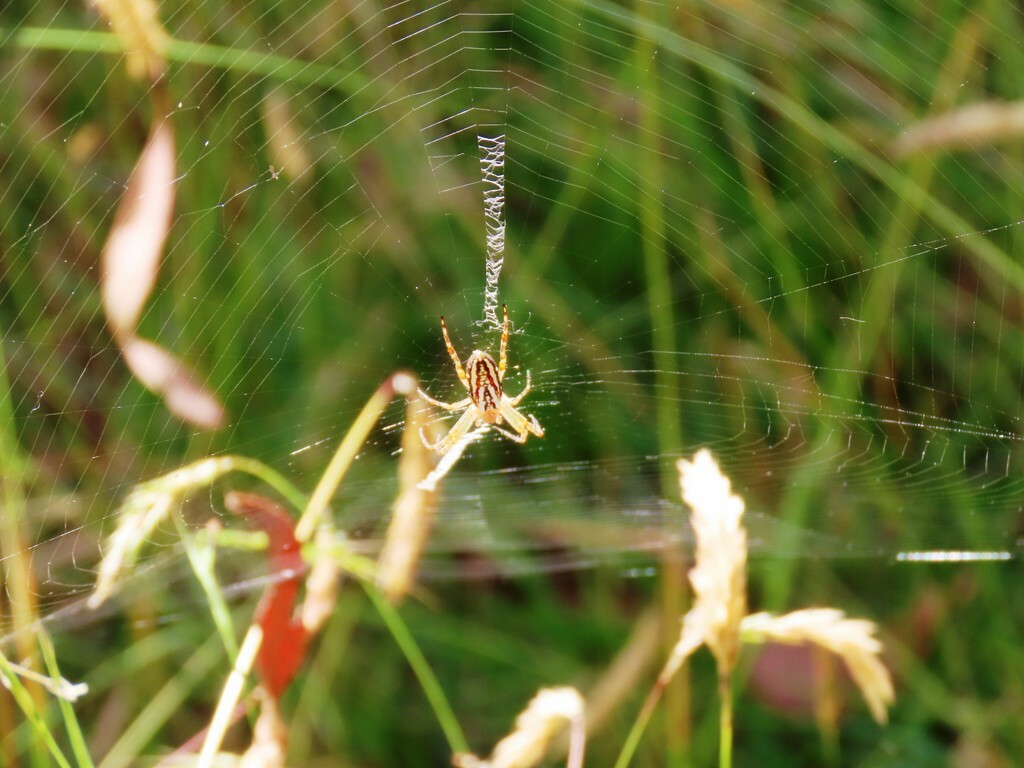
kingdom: Animalia
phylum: Arthropoda
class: Arachnida
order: Araneae
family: Araneidae
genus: Plebs
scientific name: Plebs bradleyi
